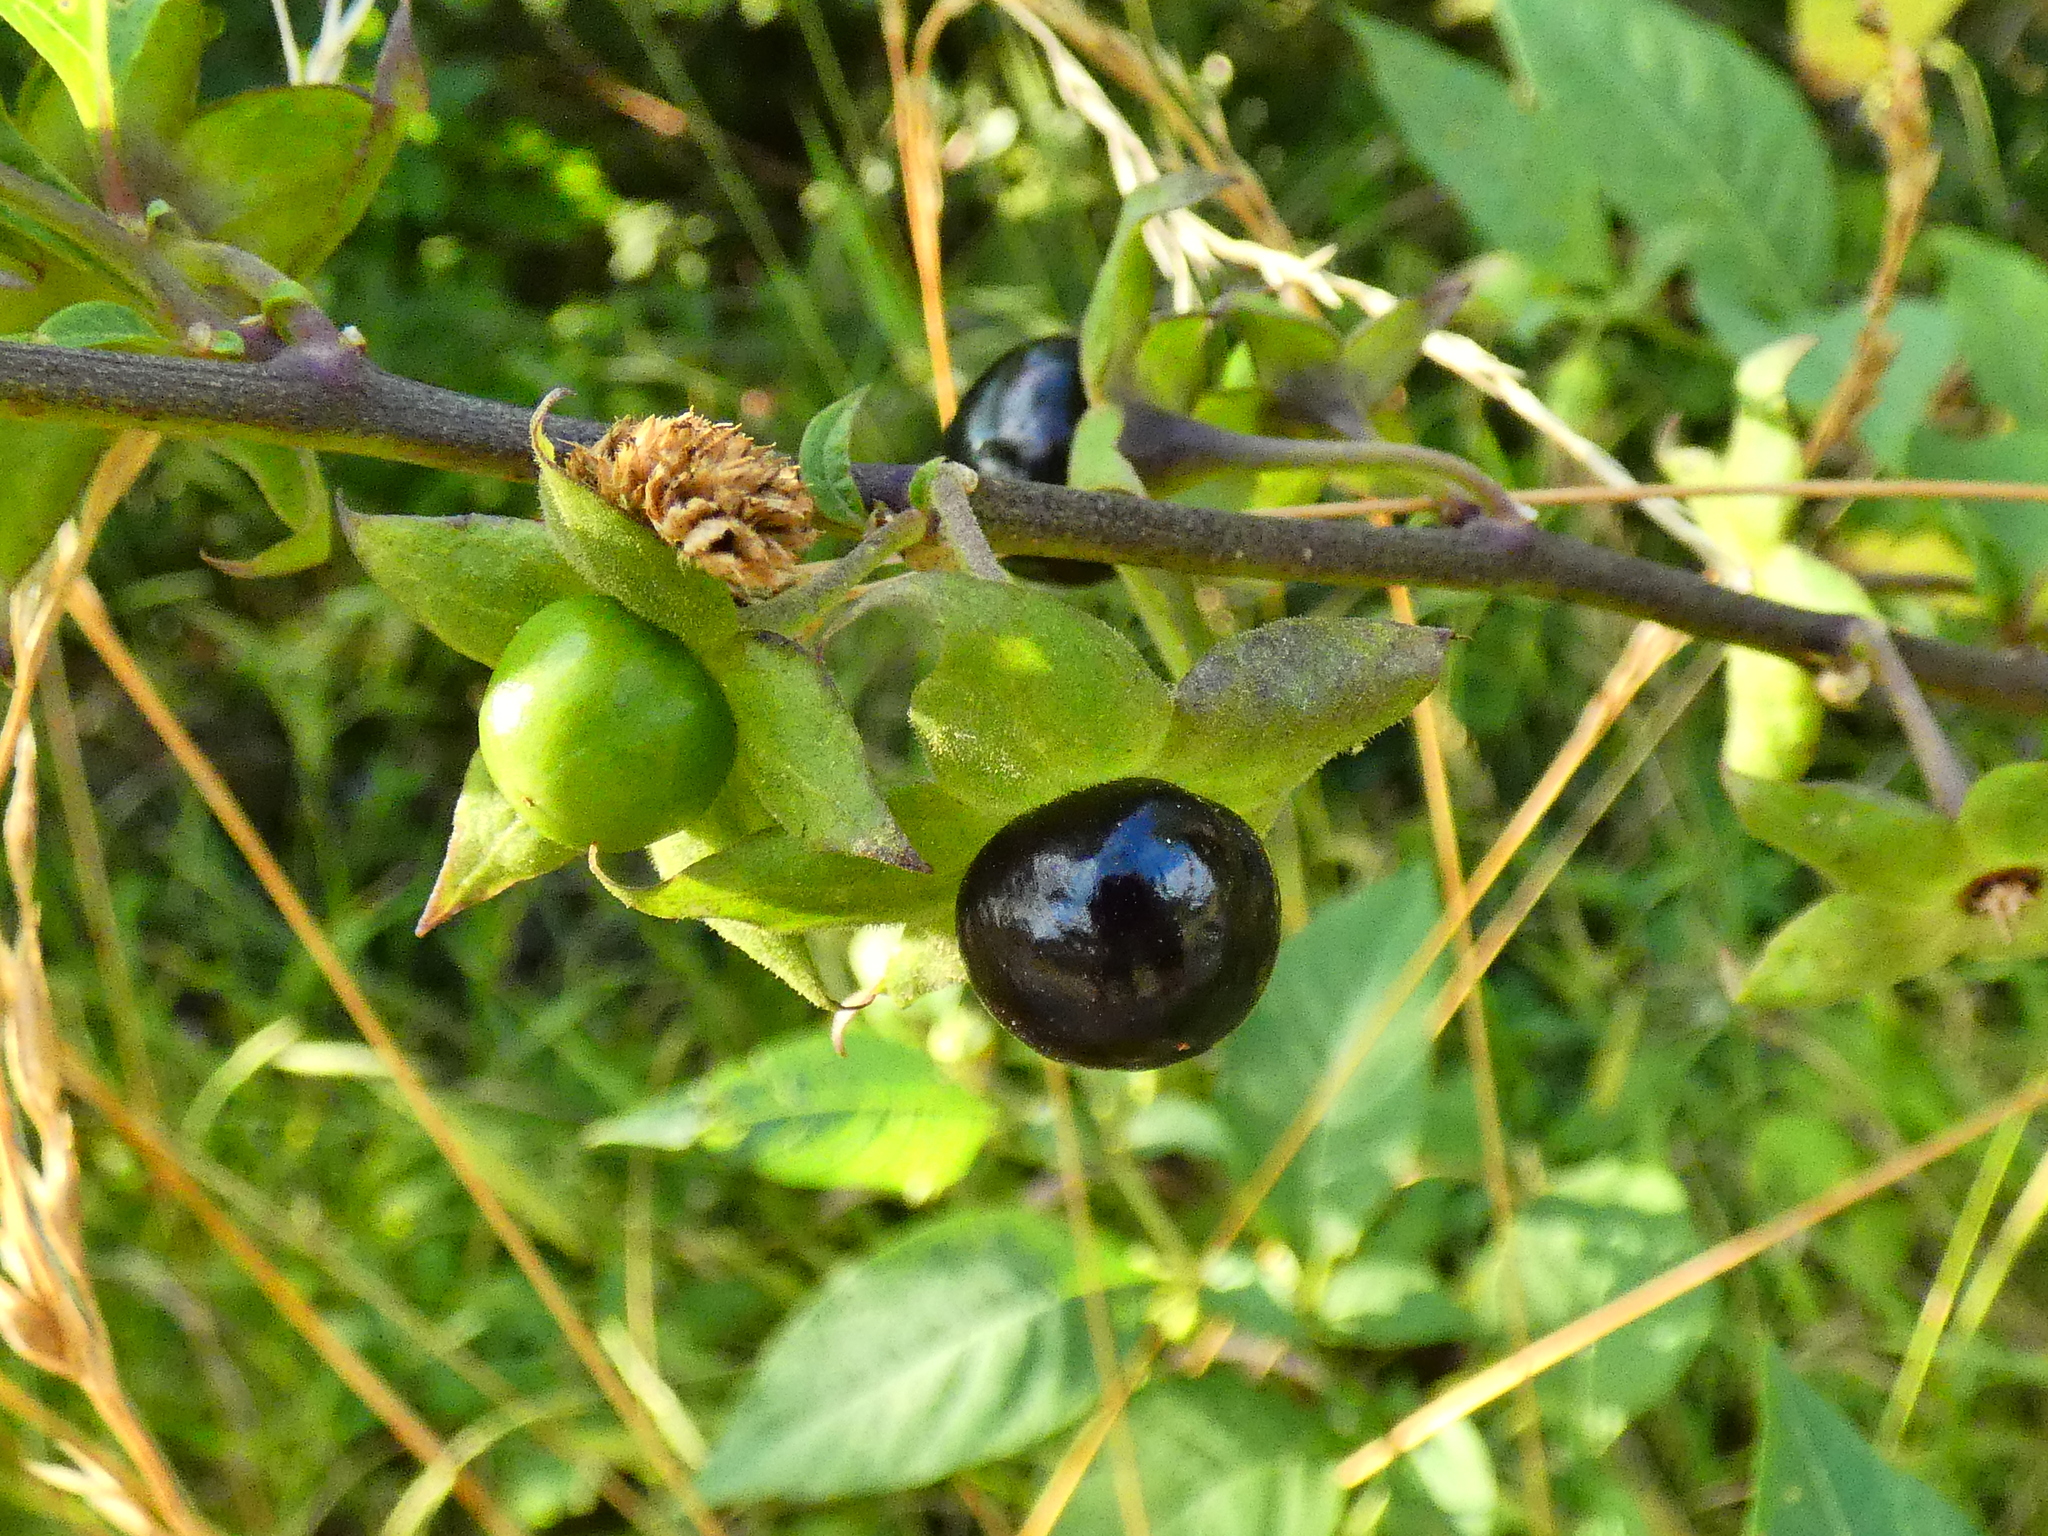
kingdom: Plantae
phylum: Tracheophyta
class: Magnoliopsida
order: Solanales
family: Solanaceae
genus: Atropa
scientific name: Atropa belladonna
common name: Deadly nightshade
